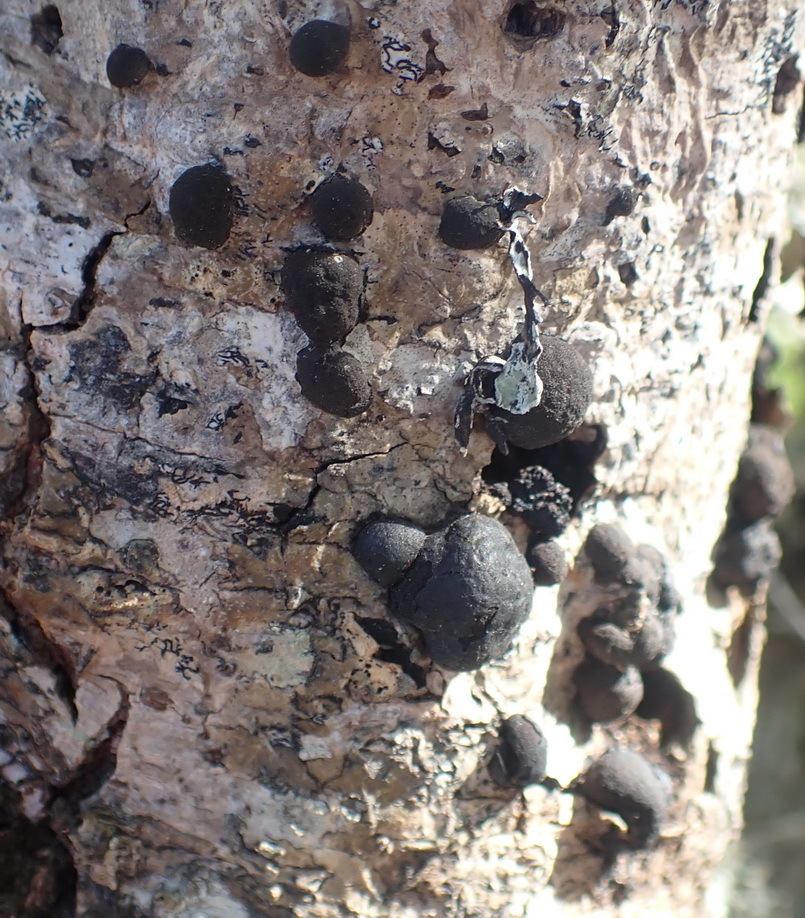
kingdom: Fungi
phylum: Ascomycota
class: Sordariomycetes
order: Xylariales
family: Hypoxylaceae
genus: Daldinia
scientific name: Daldinia concentrica
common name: Cramp balls
